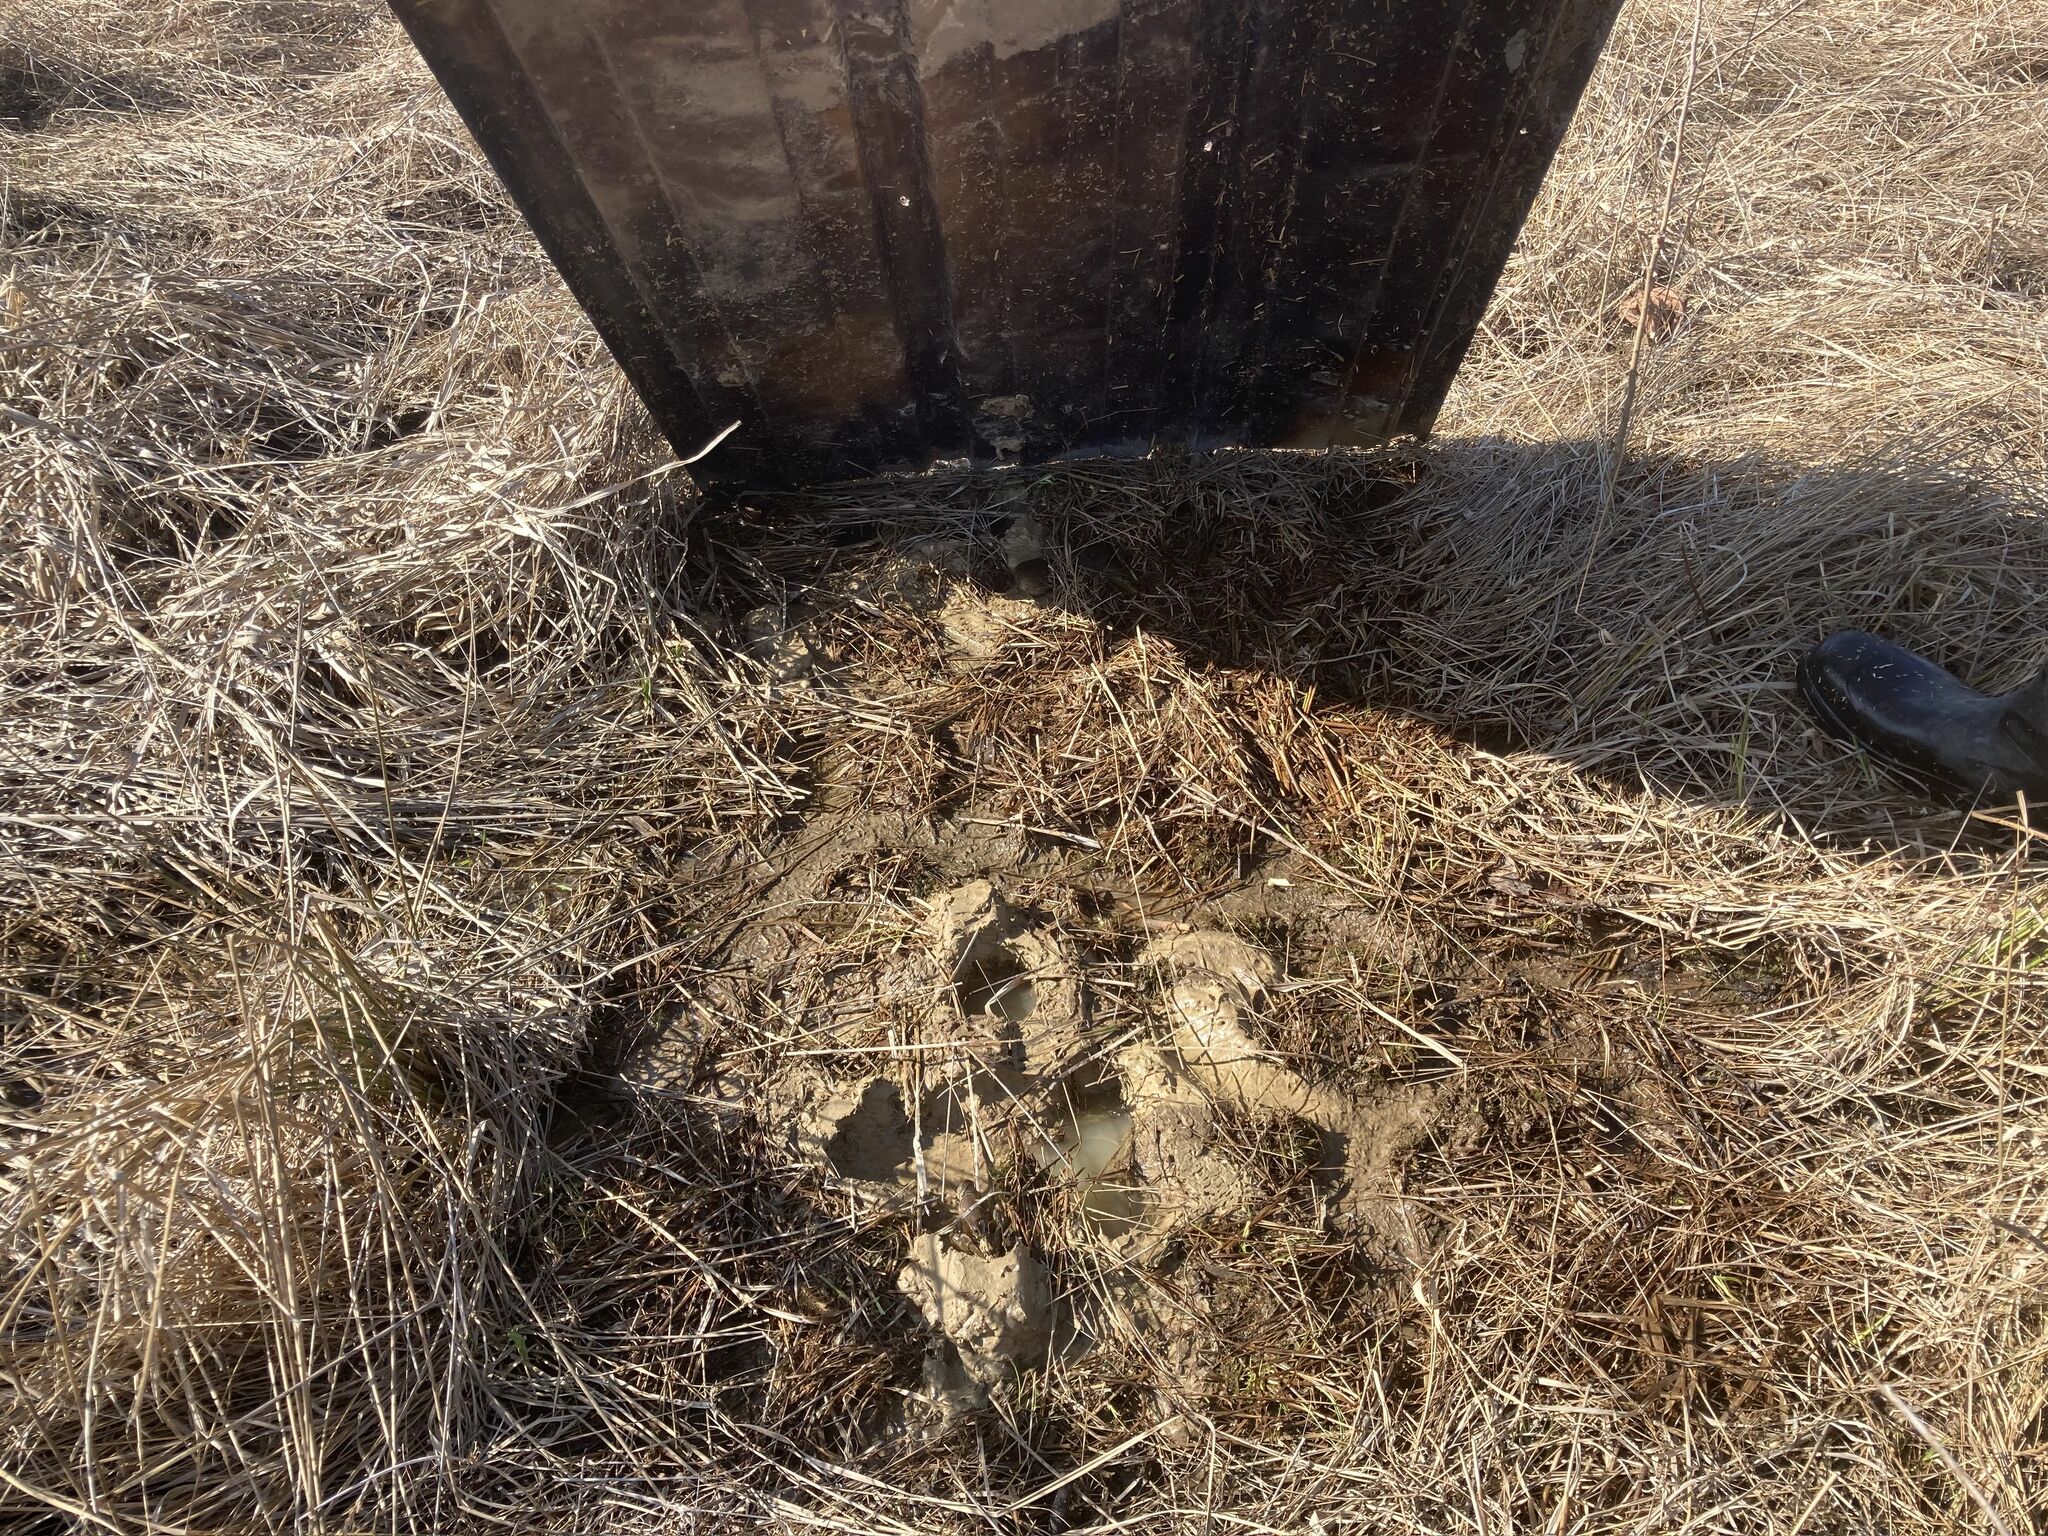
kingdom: Animalia
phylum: Chordata
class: Mammalia
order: Rodentia
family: Cricetidae
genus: Microtus
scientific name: Microtus pennsylvanicus
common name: Meadow vole
